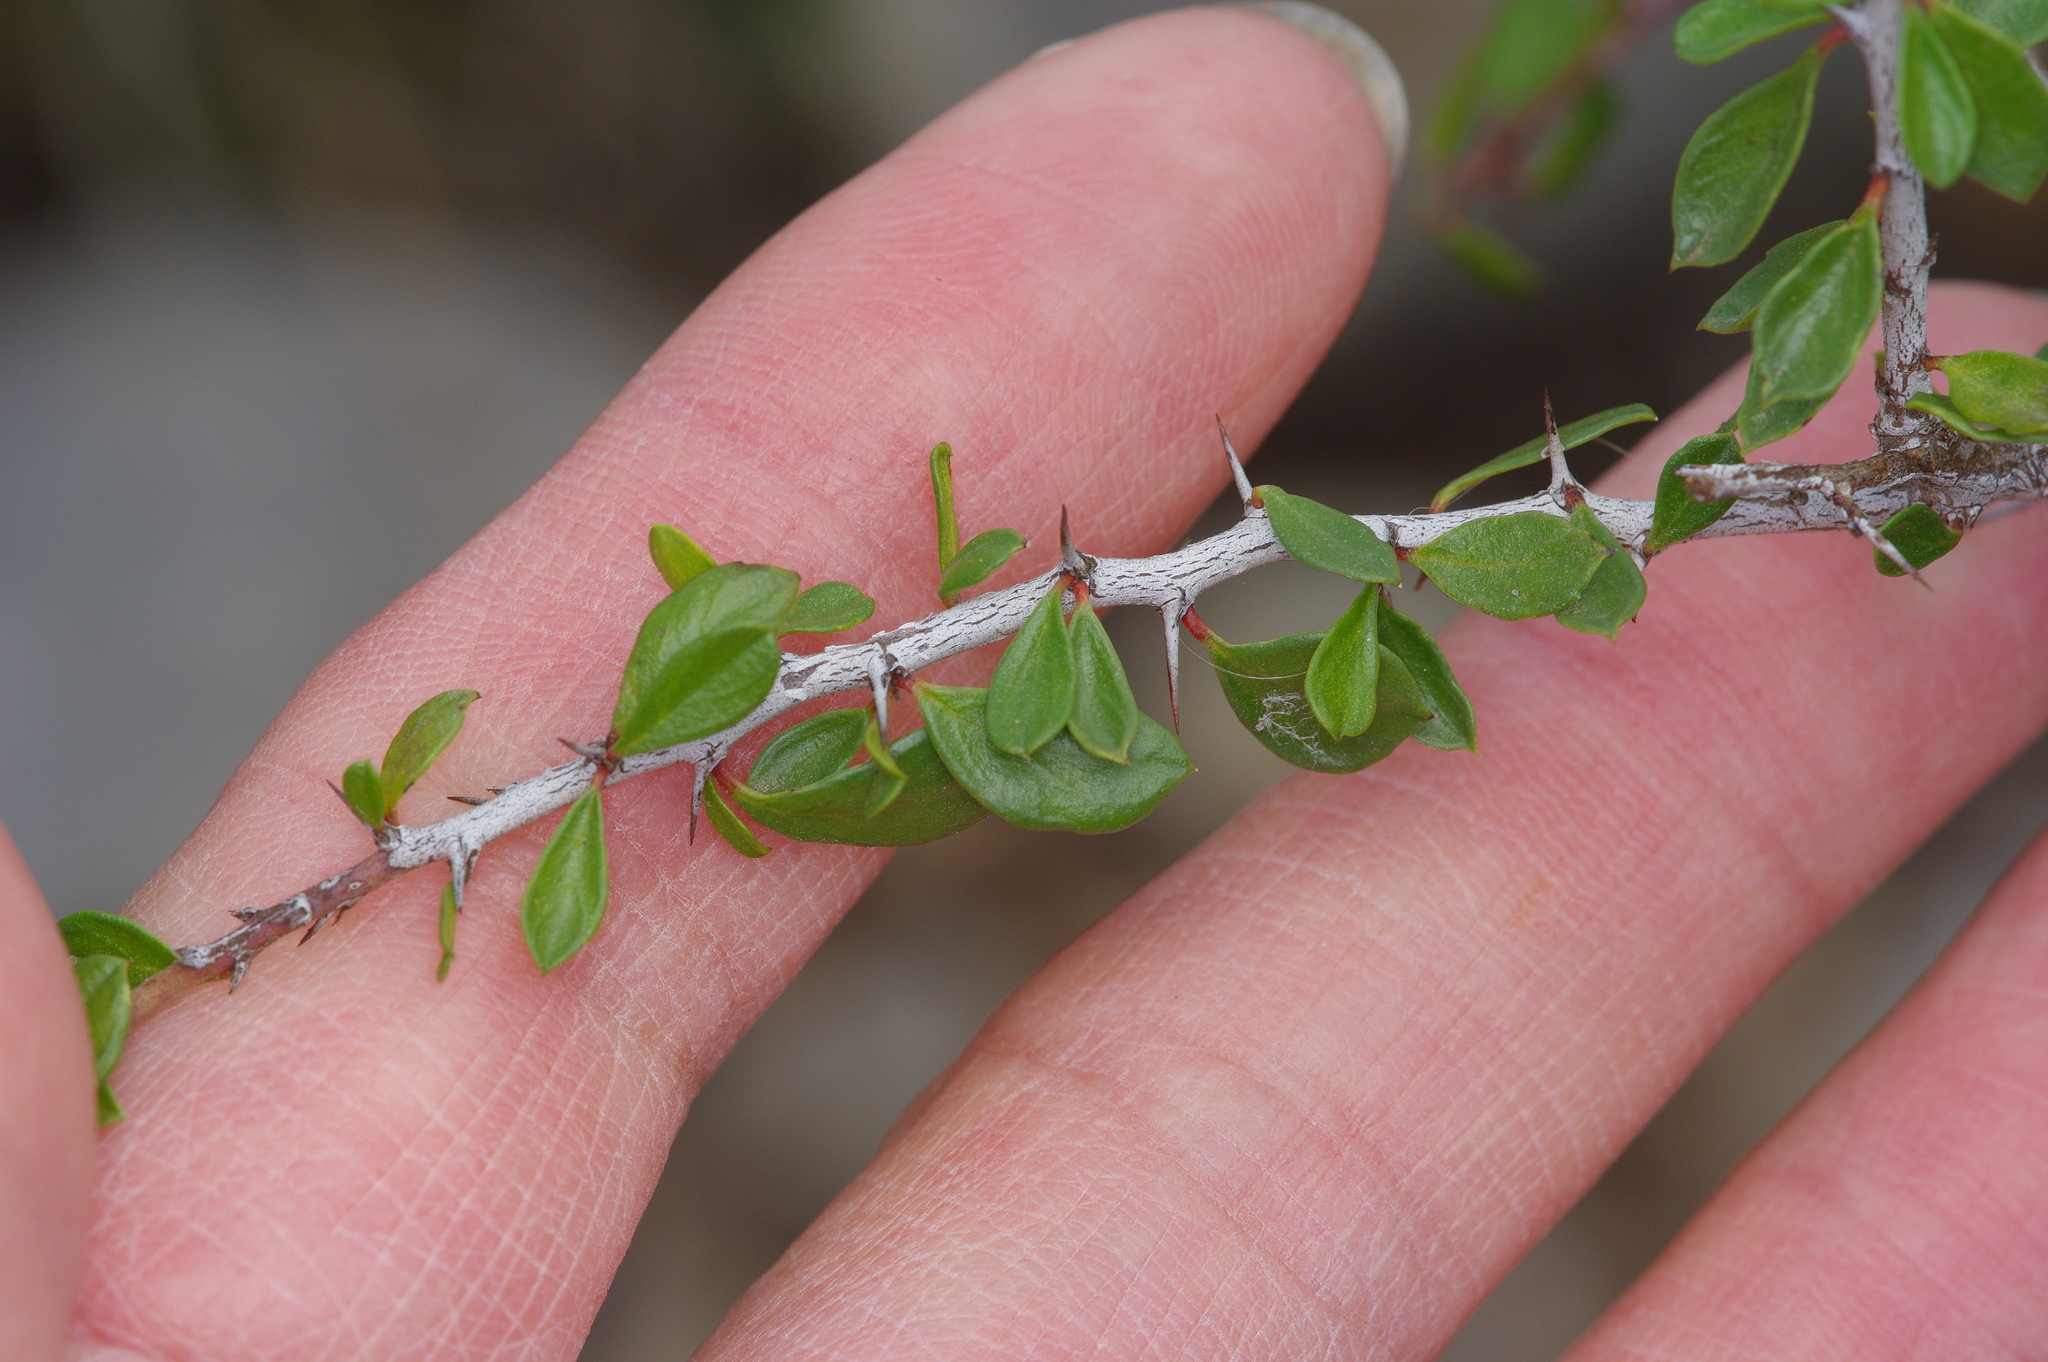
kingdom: Plantae
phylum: Tracheophyta
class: Magnoliopsida
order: Rosales
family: Rhamnaceae
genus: Condalia
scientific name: Condalia viridis
